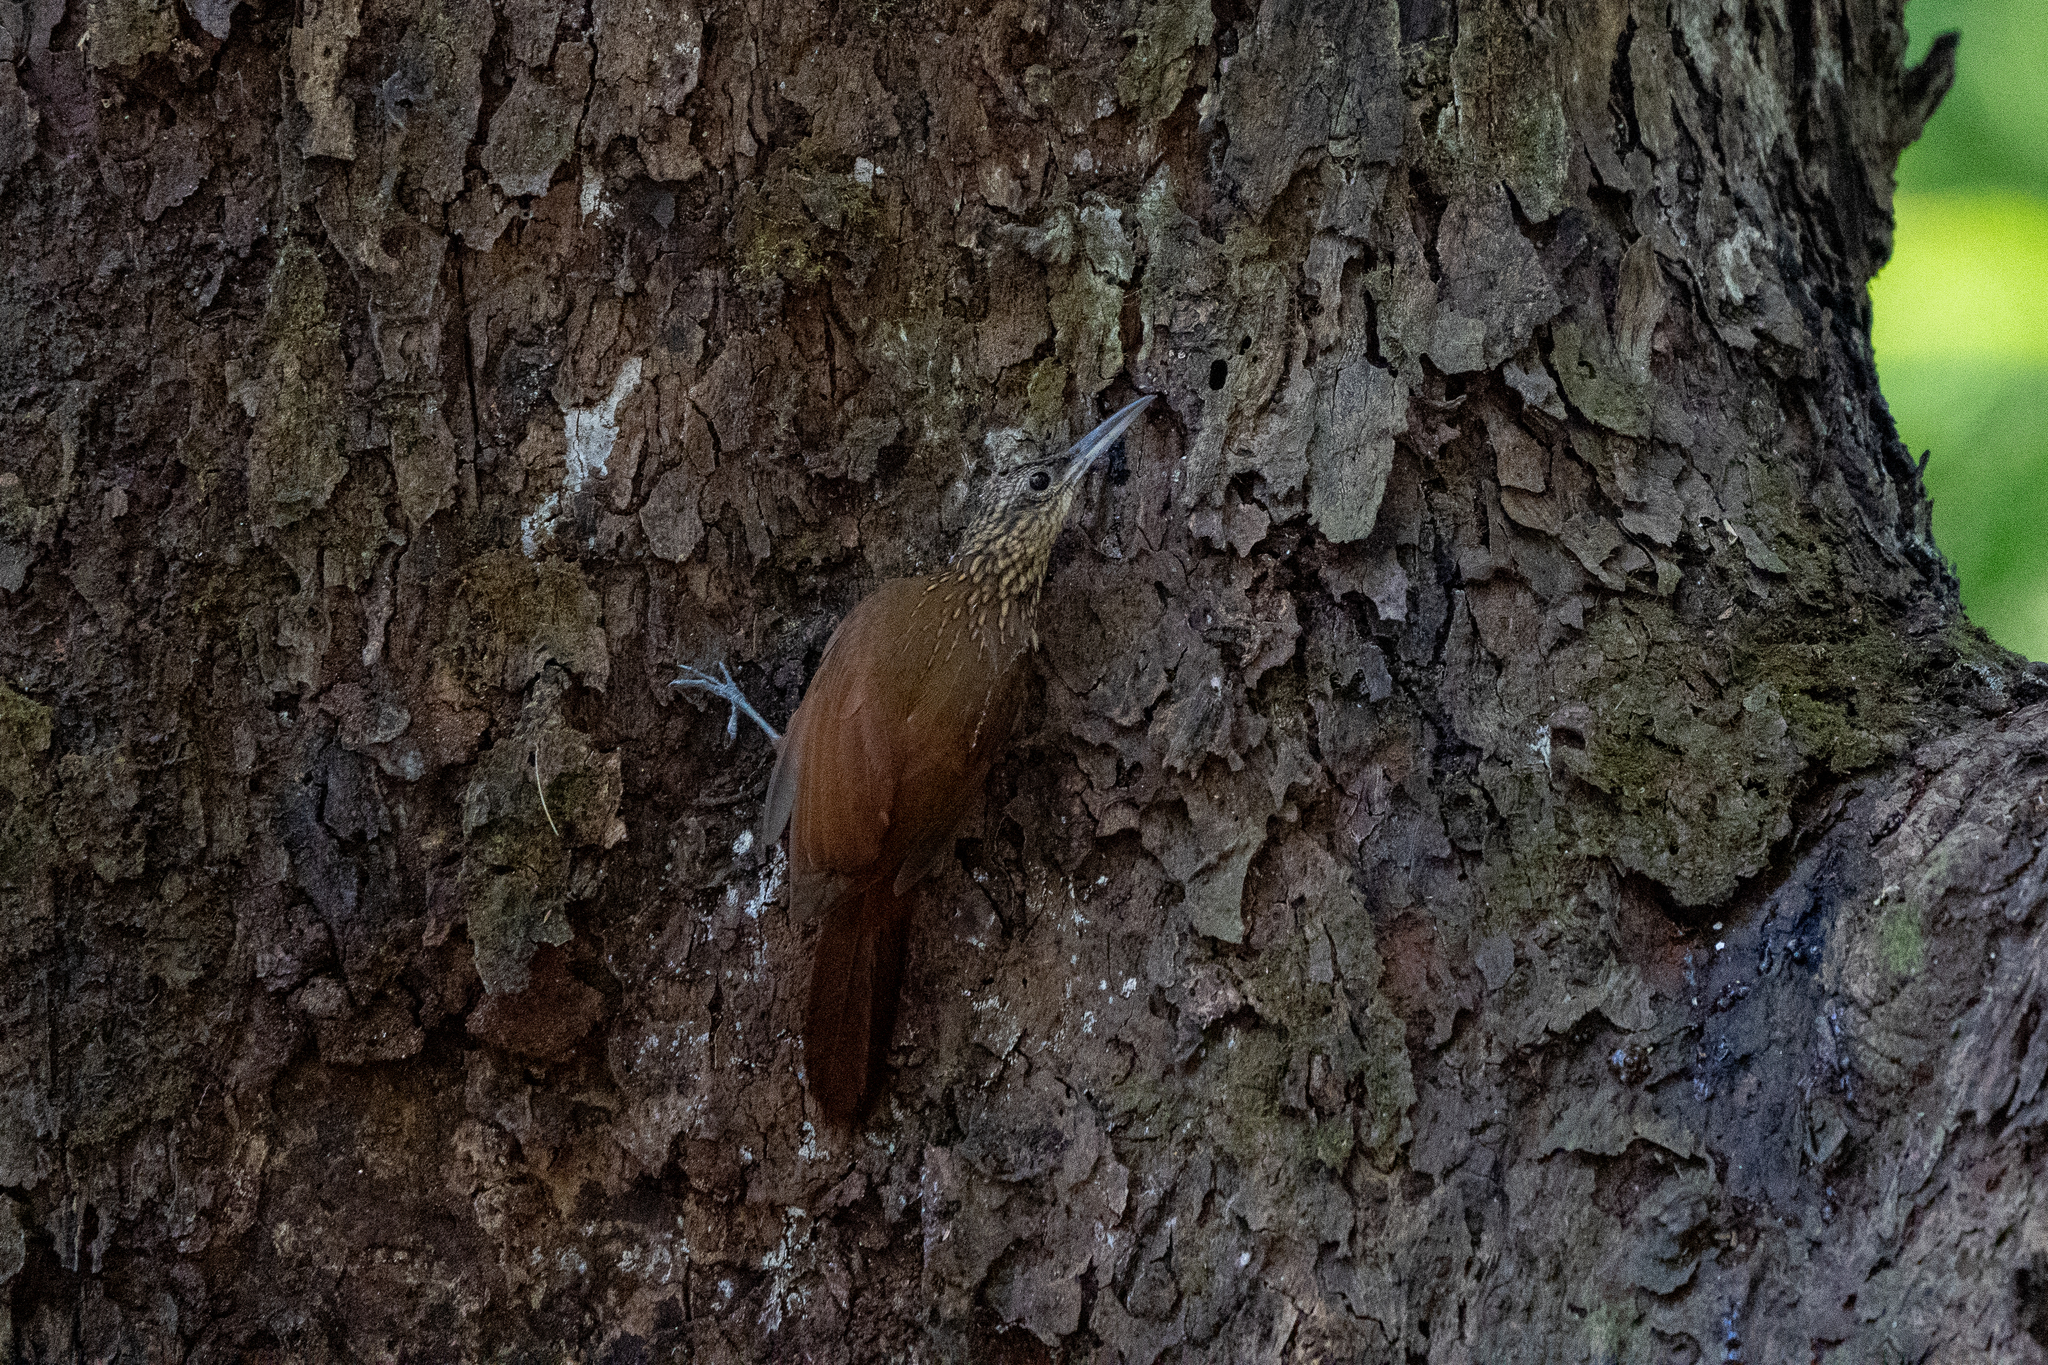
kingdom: Animalia
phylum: Chordata
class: Aves
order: Passeriformes
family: Furnariidae
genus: Xiphorhynchus
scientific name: Xiphorhynchus susurrans
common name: Cocoa woodcreeper
